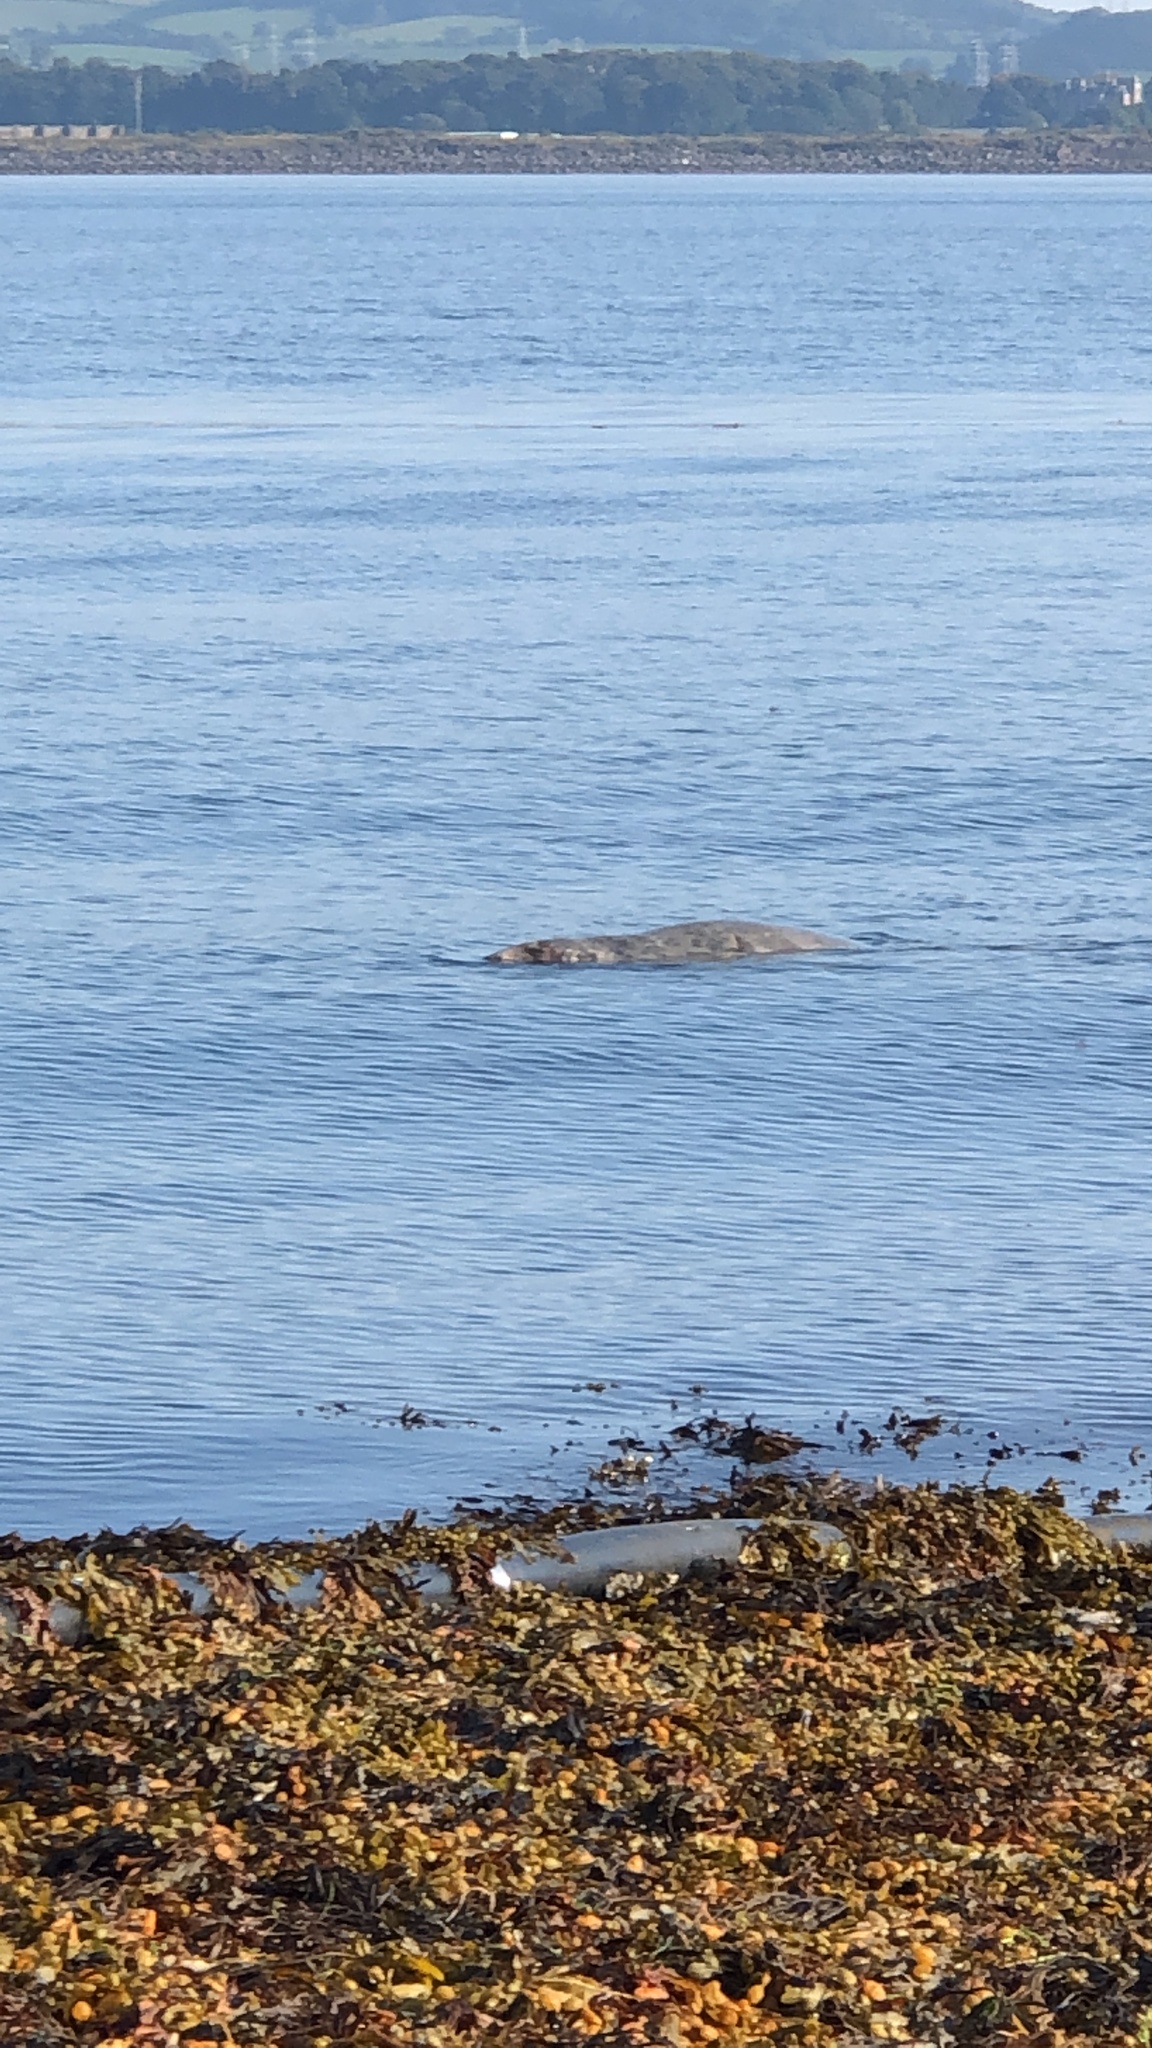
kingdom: Animalia
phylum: Chordata
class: Mammalia
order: Carnivora
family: Phocidae
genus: Halichoerus
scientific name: Halichoerus grypus
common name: Grey seal
